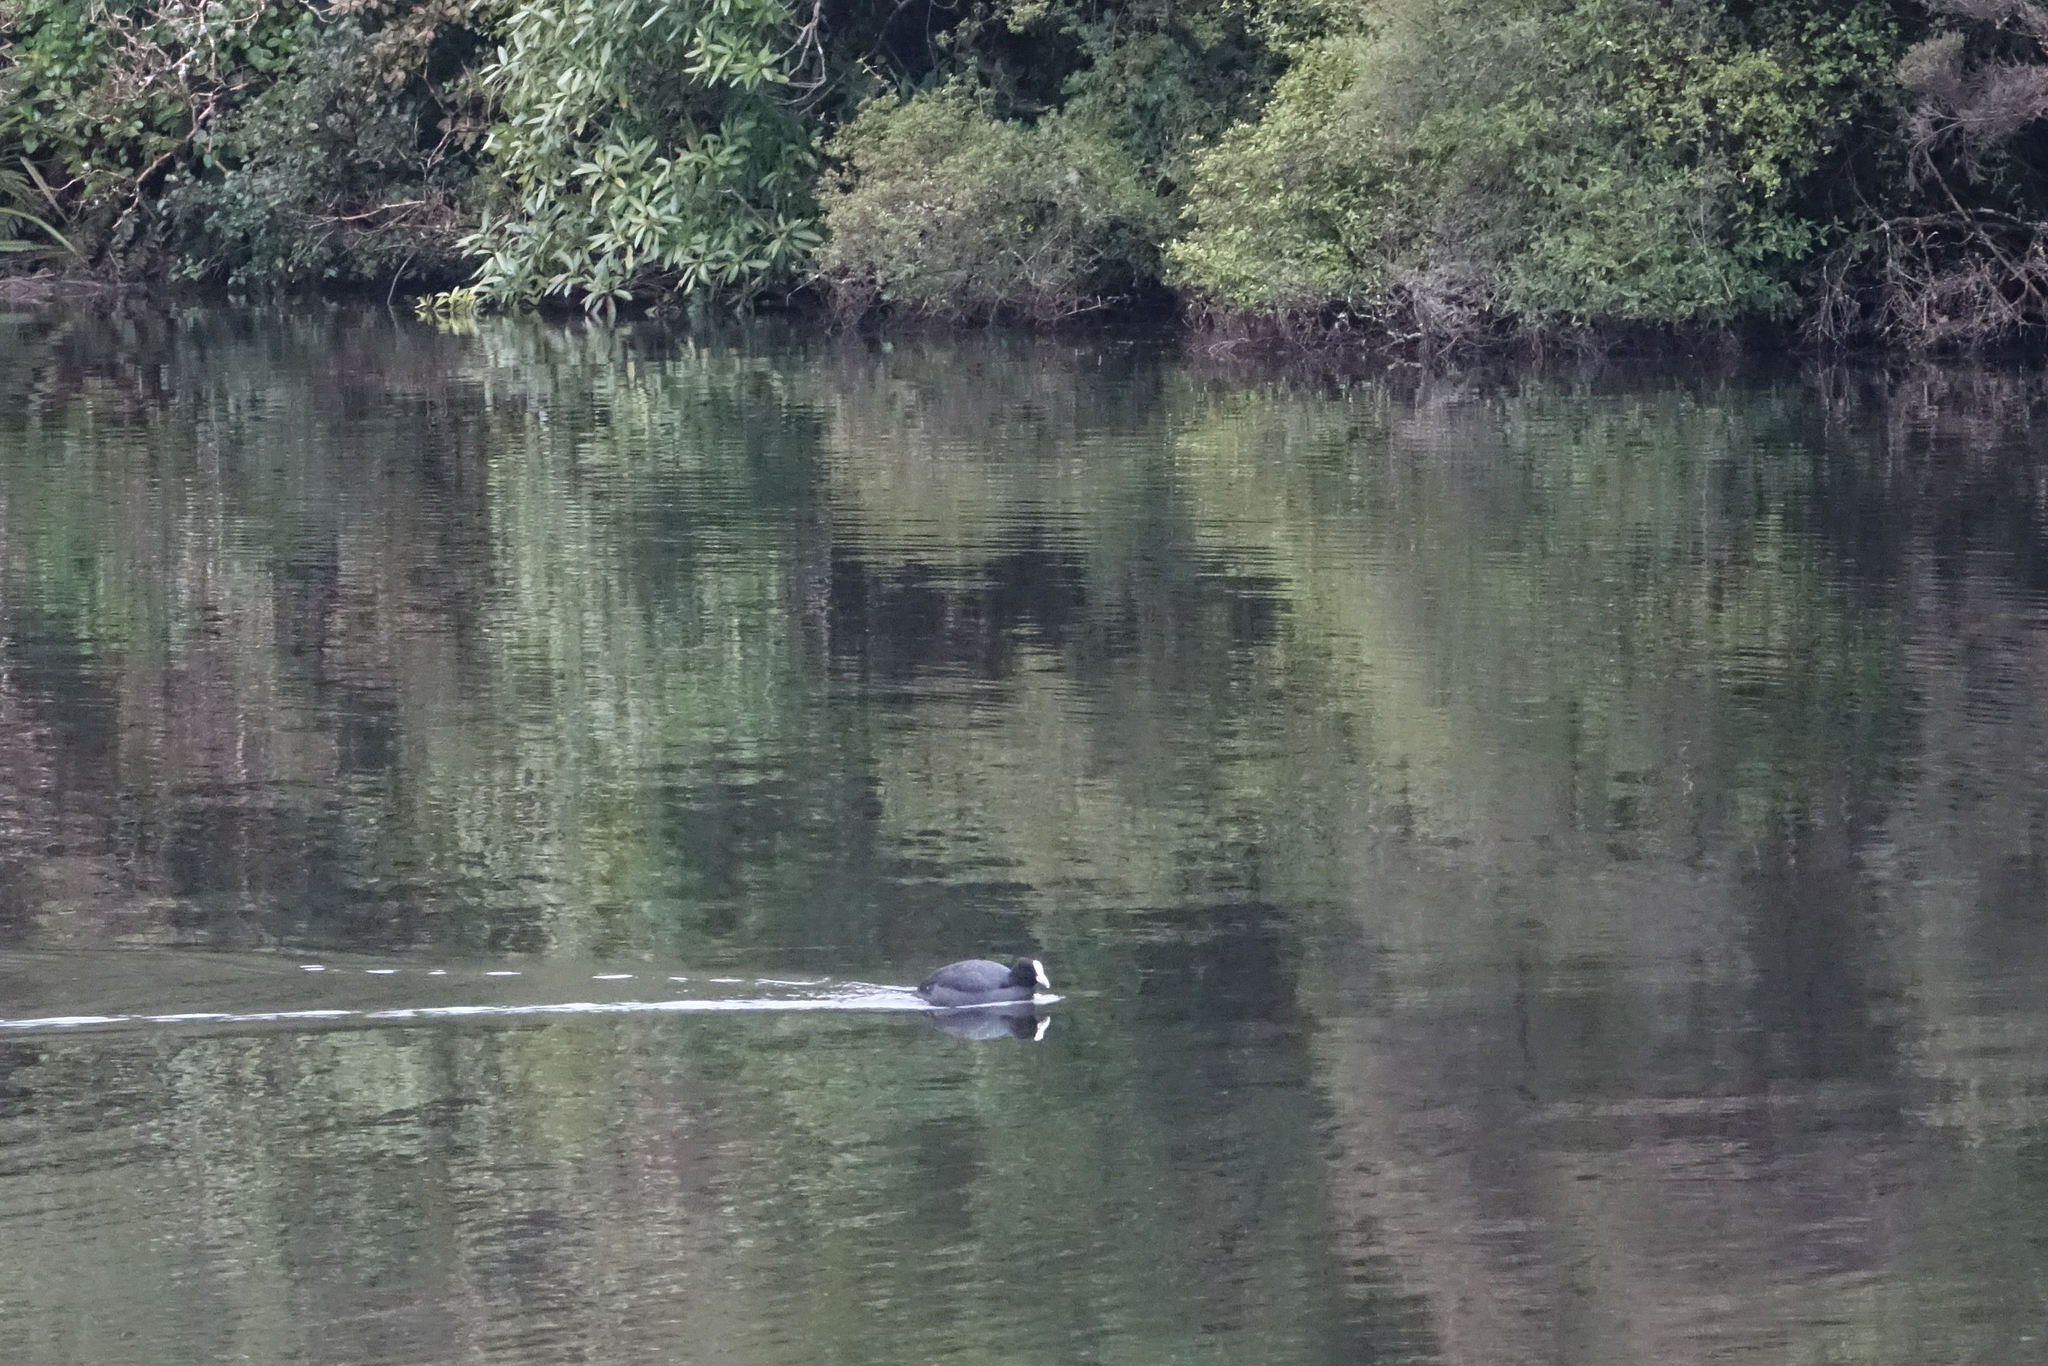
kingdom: Animalia
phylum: Chordata
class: Aves
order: Gruiformes
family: Rallidae
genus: Fulica
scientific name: Fulica atra
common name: Eurasian coot
